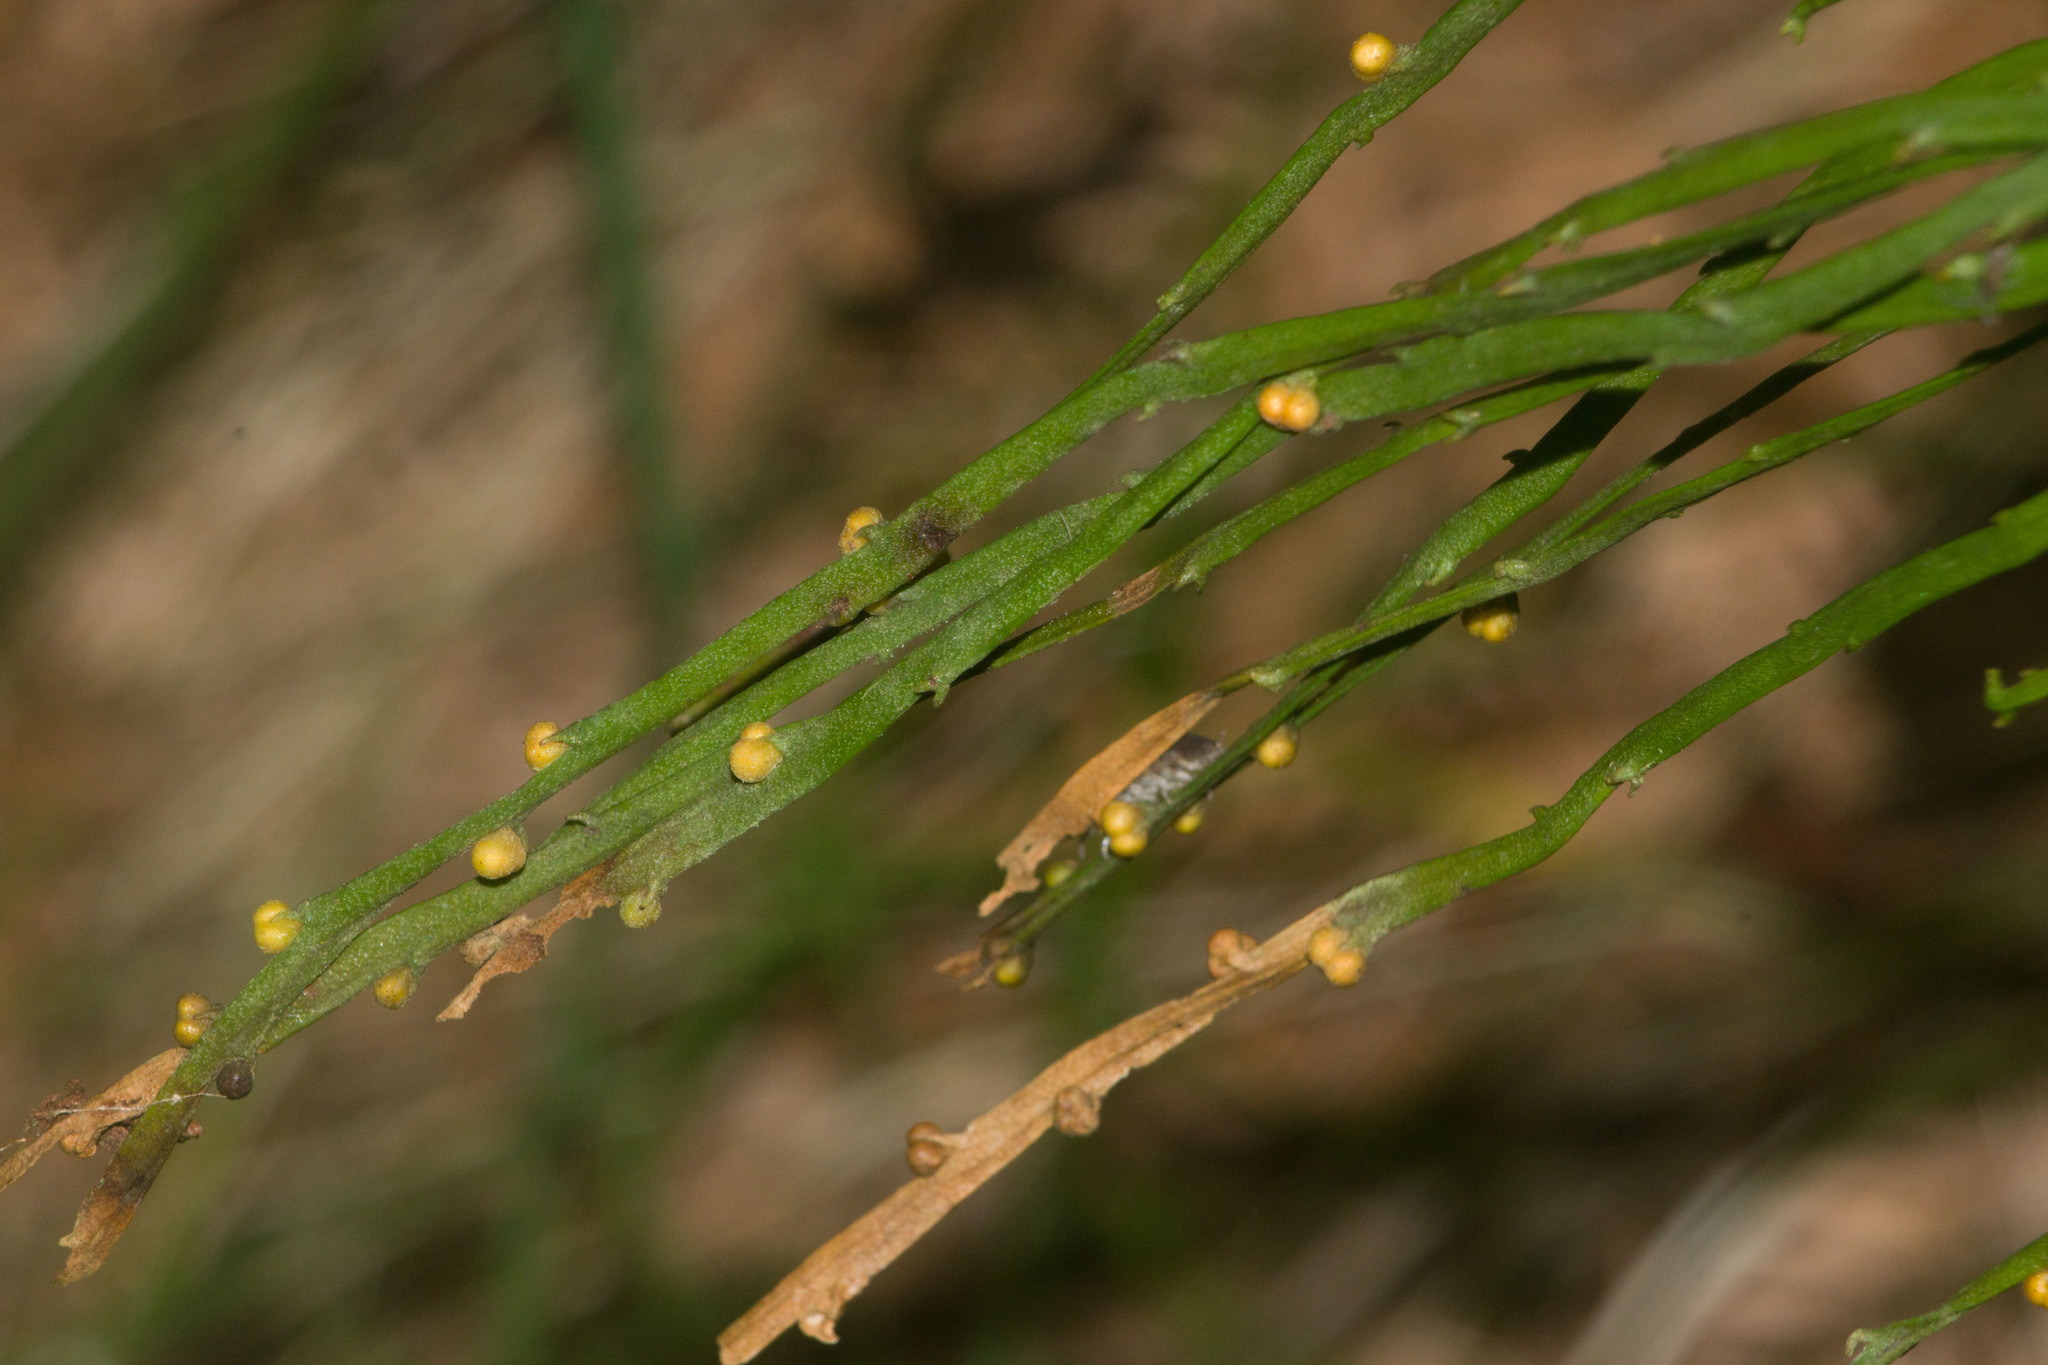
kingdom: Plantae
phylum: Tracheophyta
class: Polypodiopsida
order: Psilotales
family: Psilotaceae
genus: Psilotum
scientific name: Psilotum nudum
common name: Skeleton fork fern
